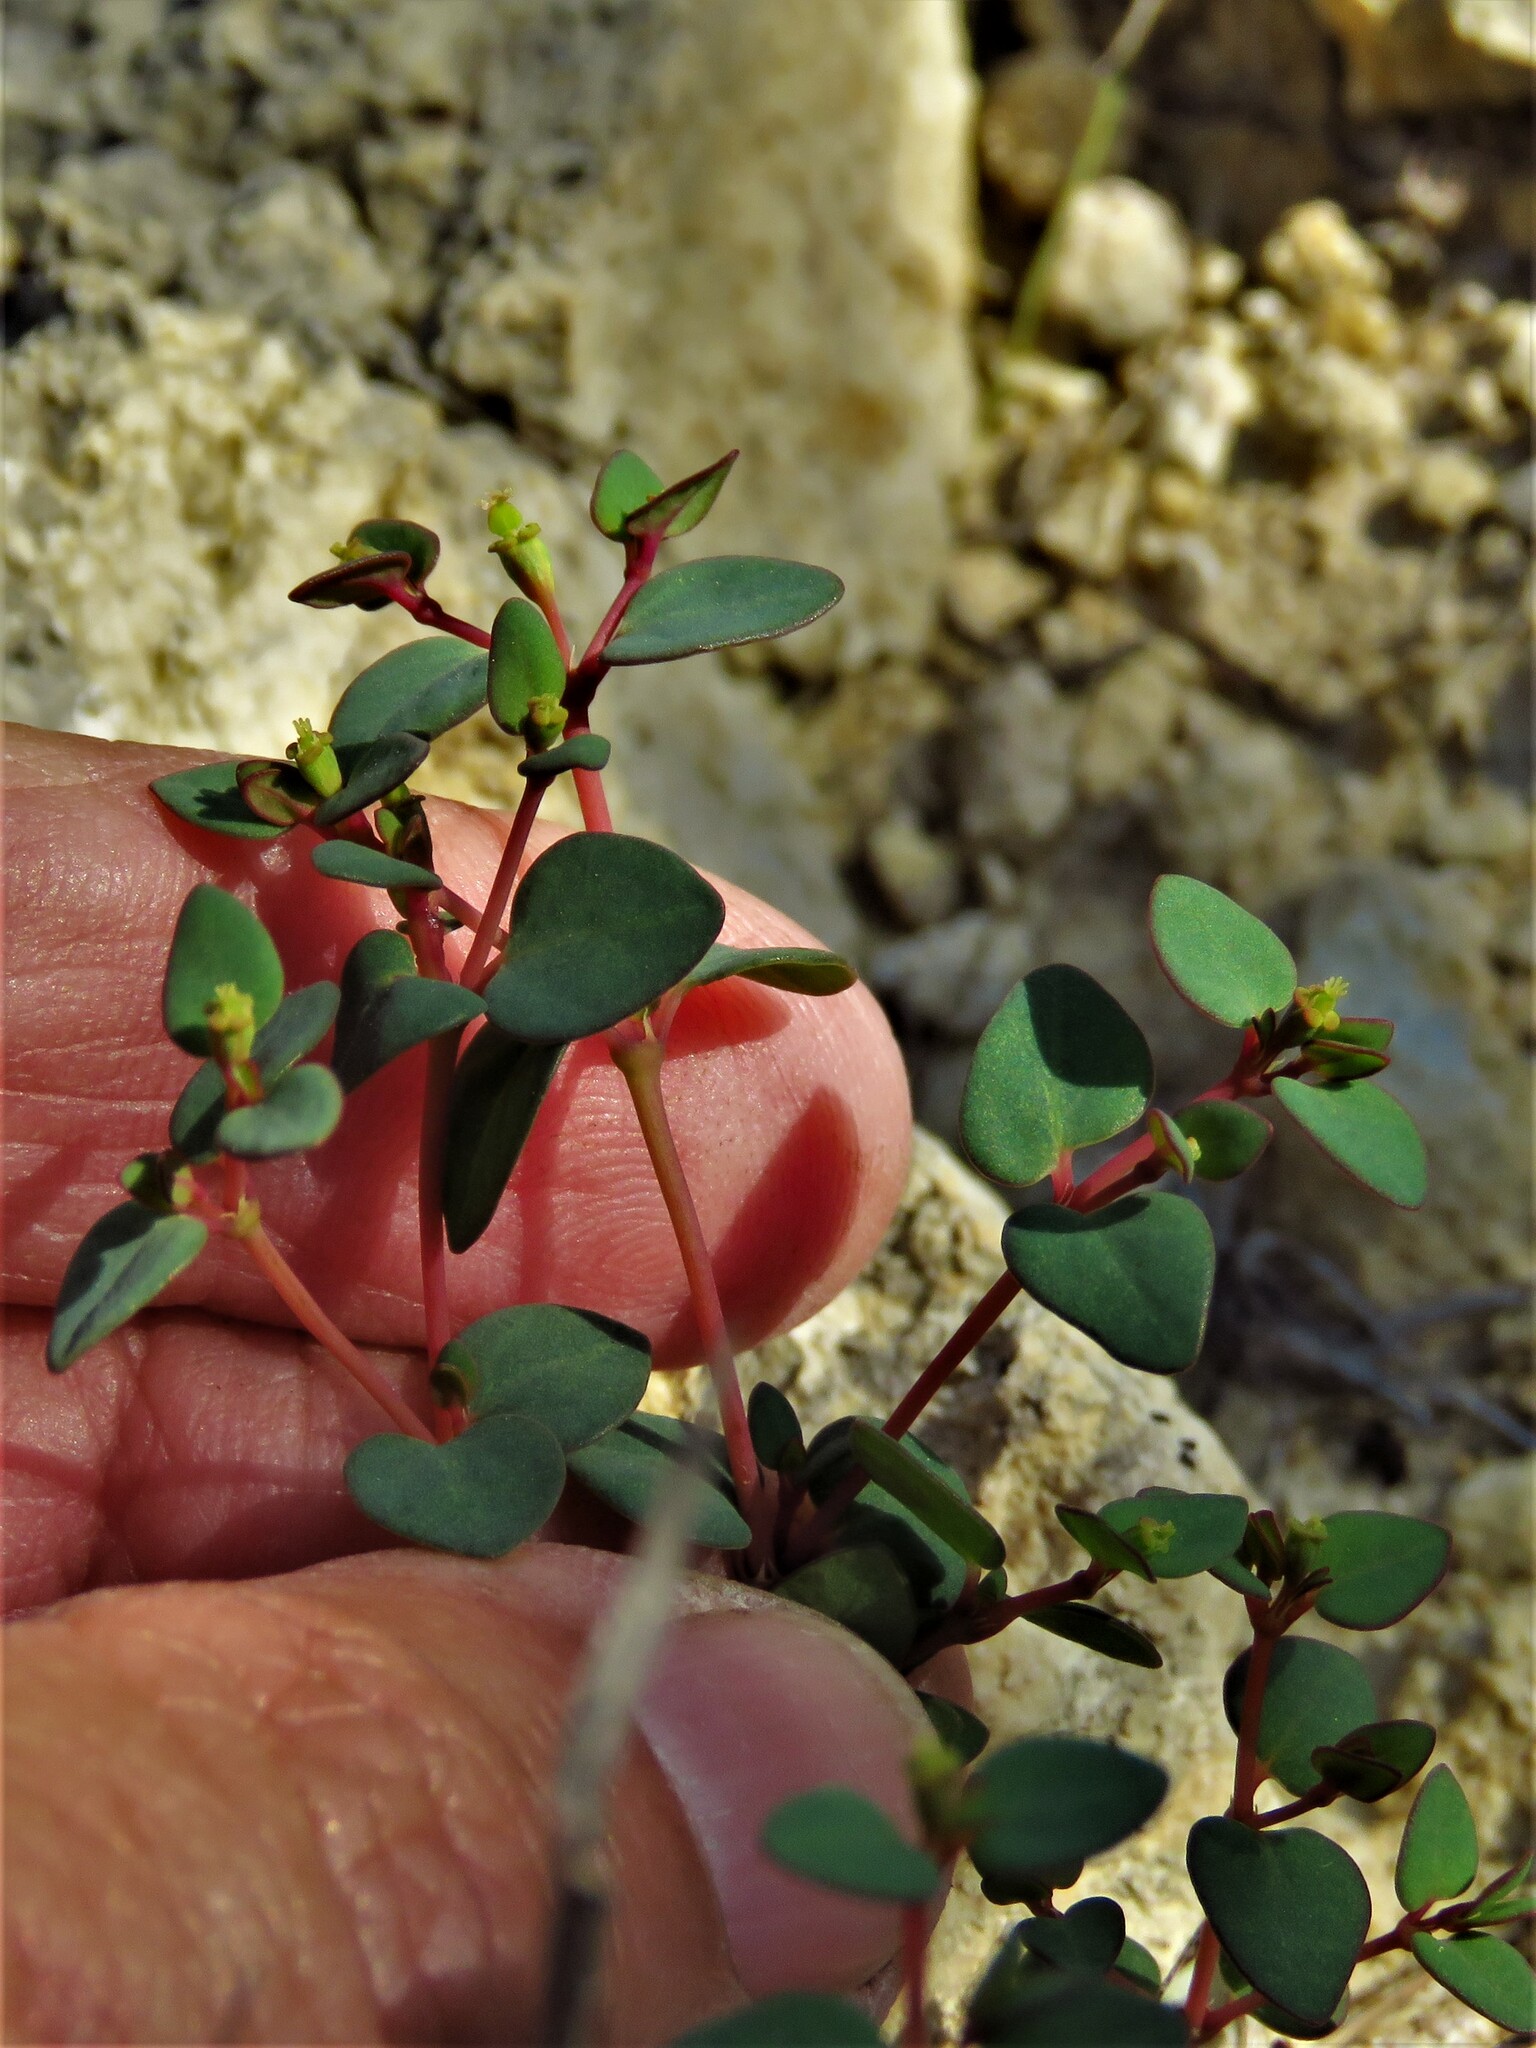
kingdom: Plantae
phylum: Tracheophyta
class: Magnoliopsida
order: Malpighiales
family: Euphorbiaceae
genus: Euphorbia
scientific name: Euphorbia fendleri
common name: Fendler's euphorbia
